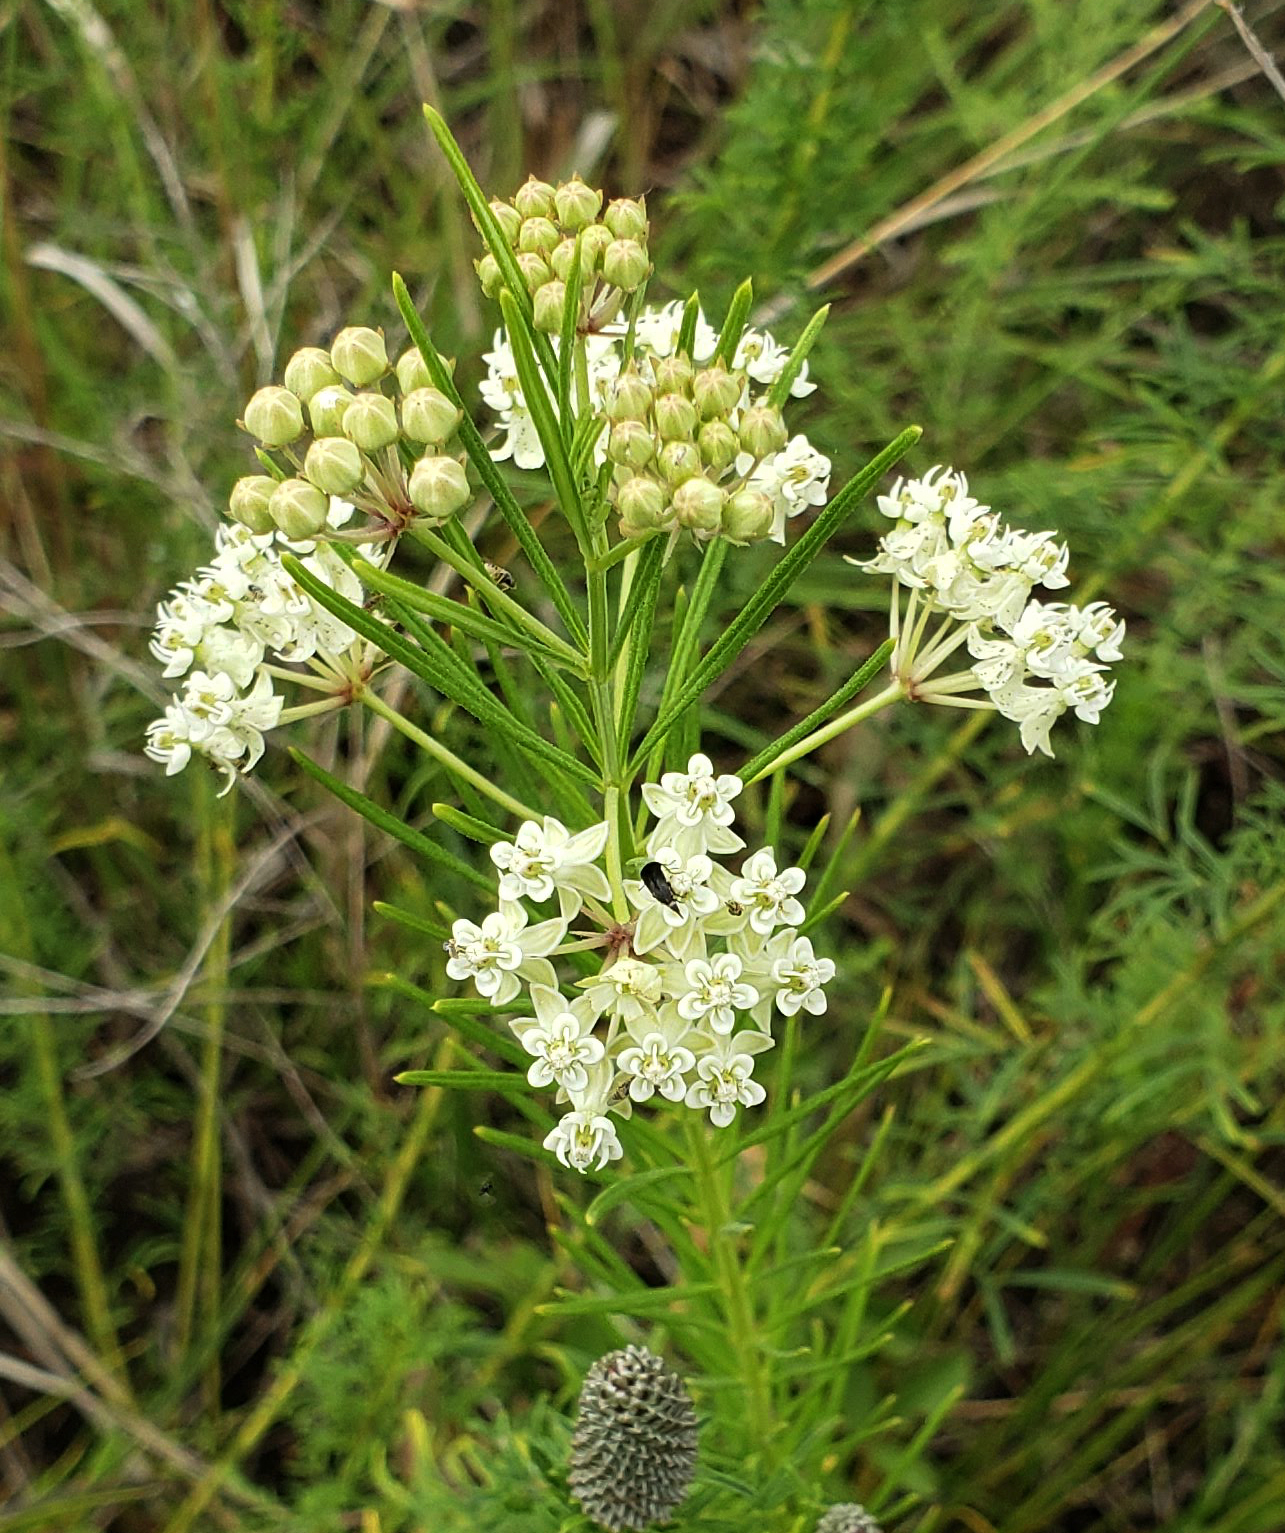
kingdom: Plantae
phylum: Tracheophyta
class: Magnoliopsida
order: Gentianales
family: Apocynaceae
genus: Asclepias
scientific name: Asclepias verticillata
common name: Eastern whorled milkweed
